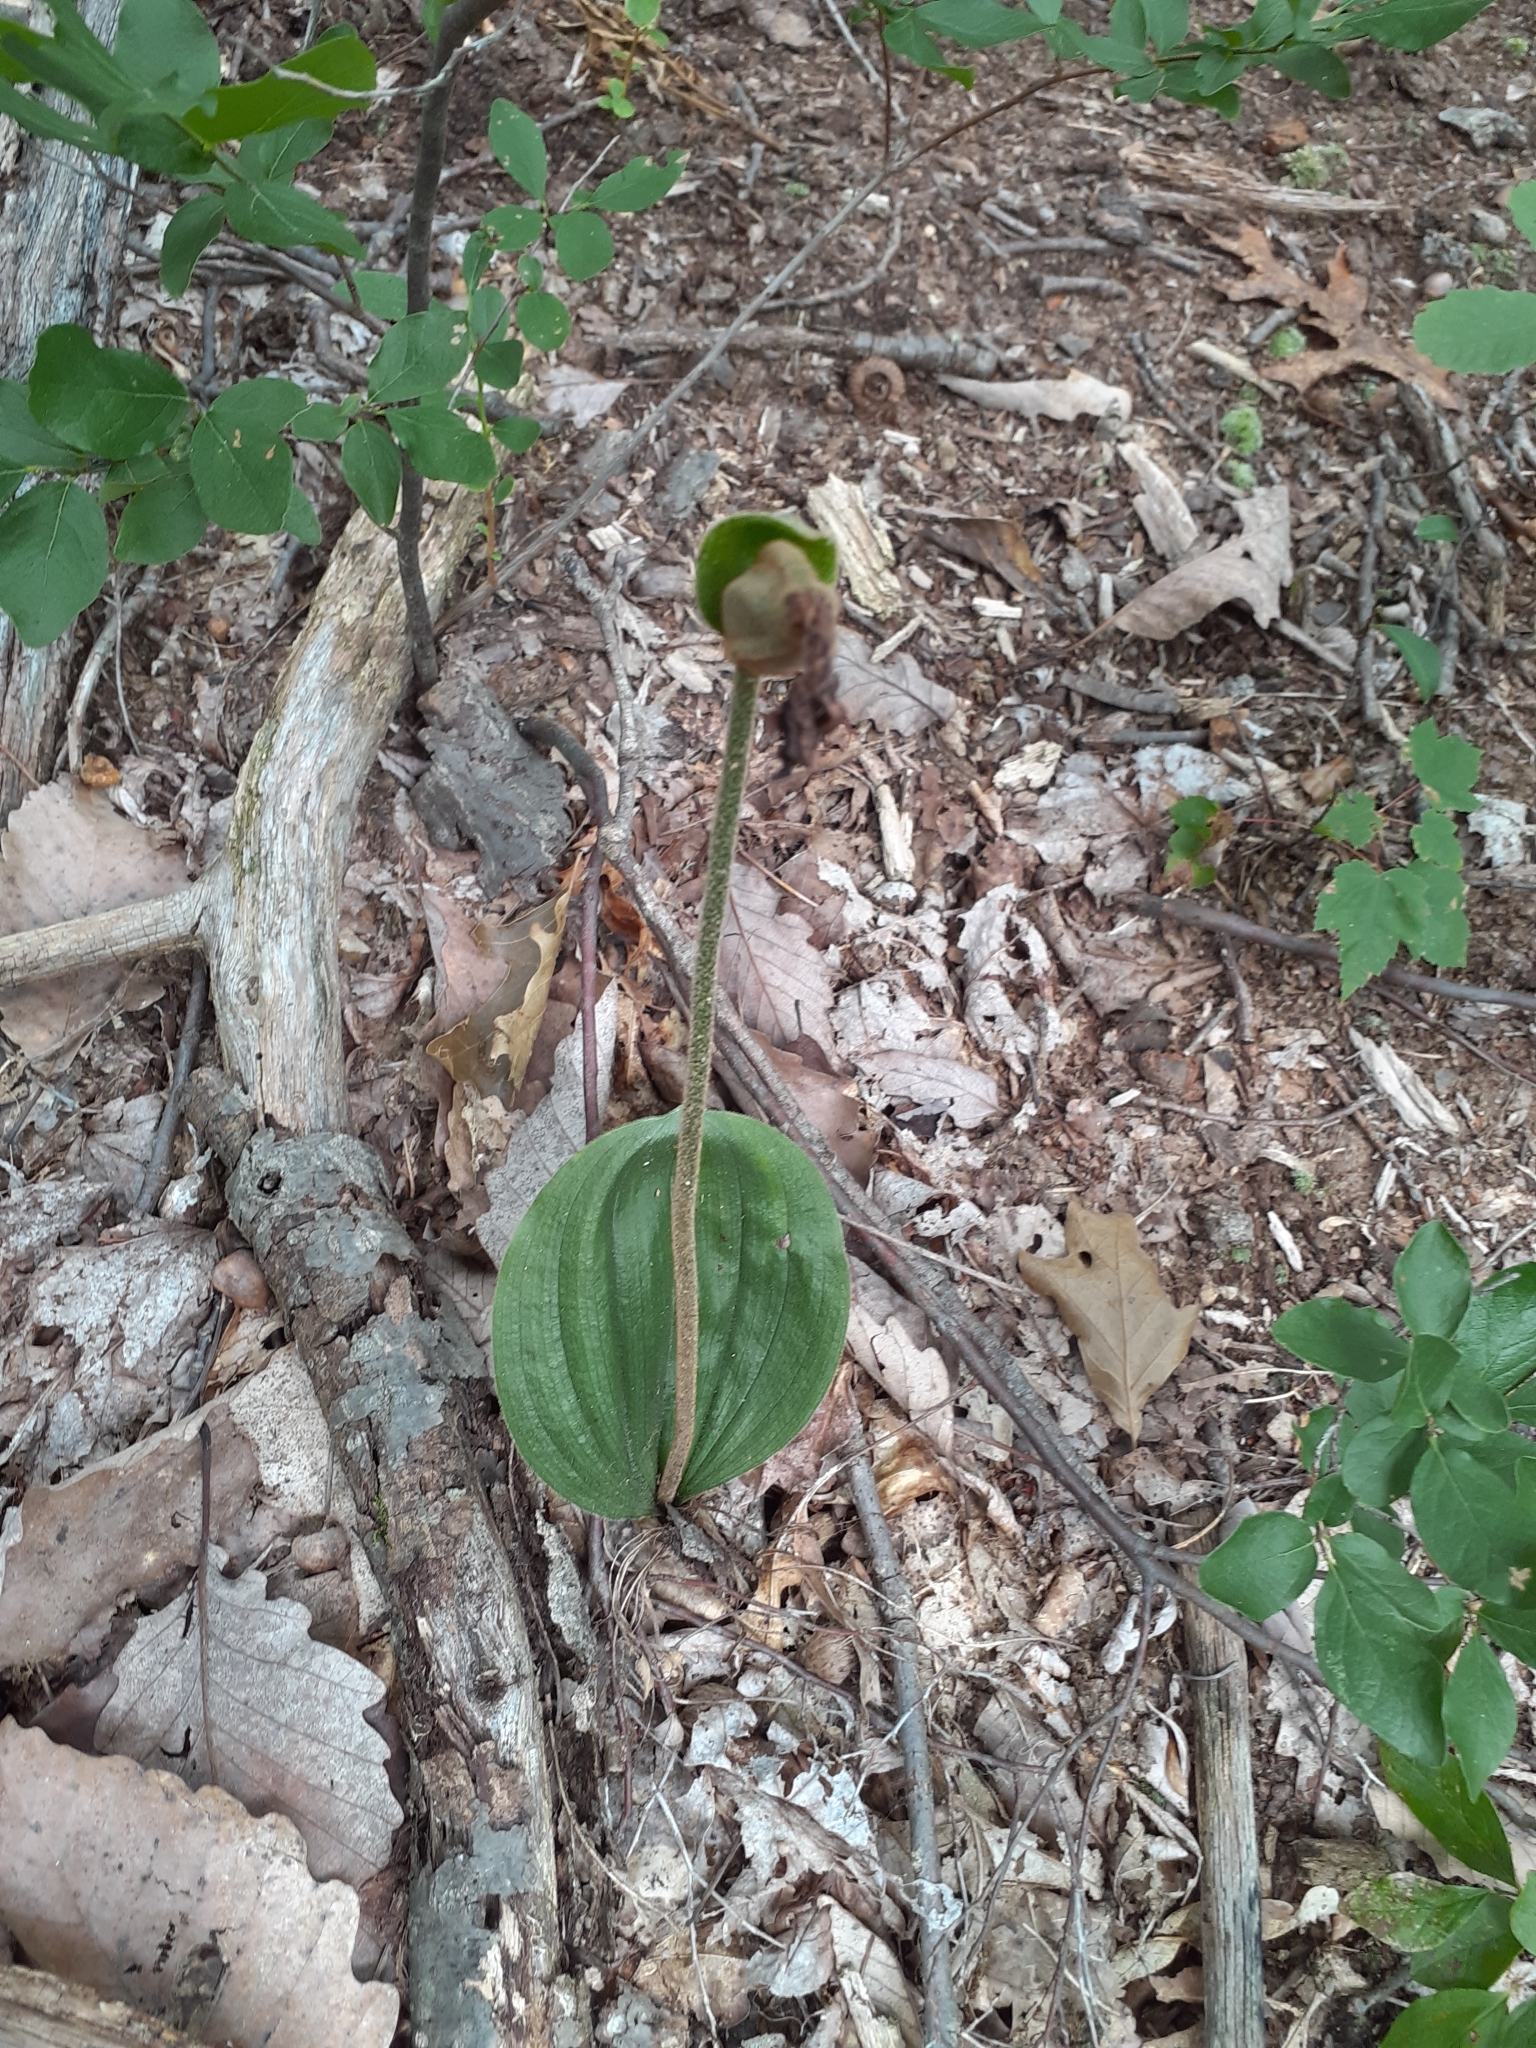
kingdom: Plantae
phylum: Tracheophyta
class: Liliopsida
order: Asparagales
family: Orchidaceae
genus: Cypripedium
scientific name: Cypripedium acaule
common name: Pink lady's-slipper
